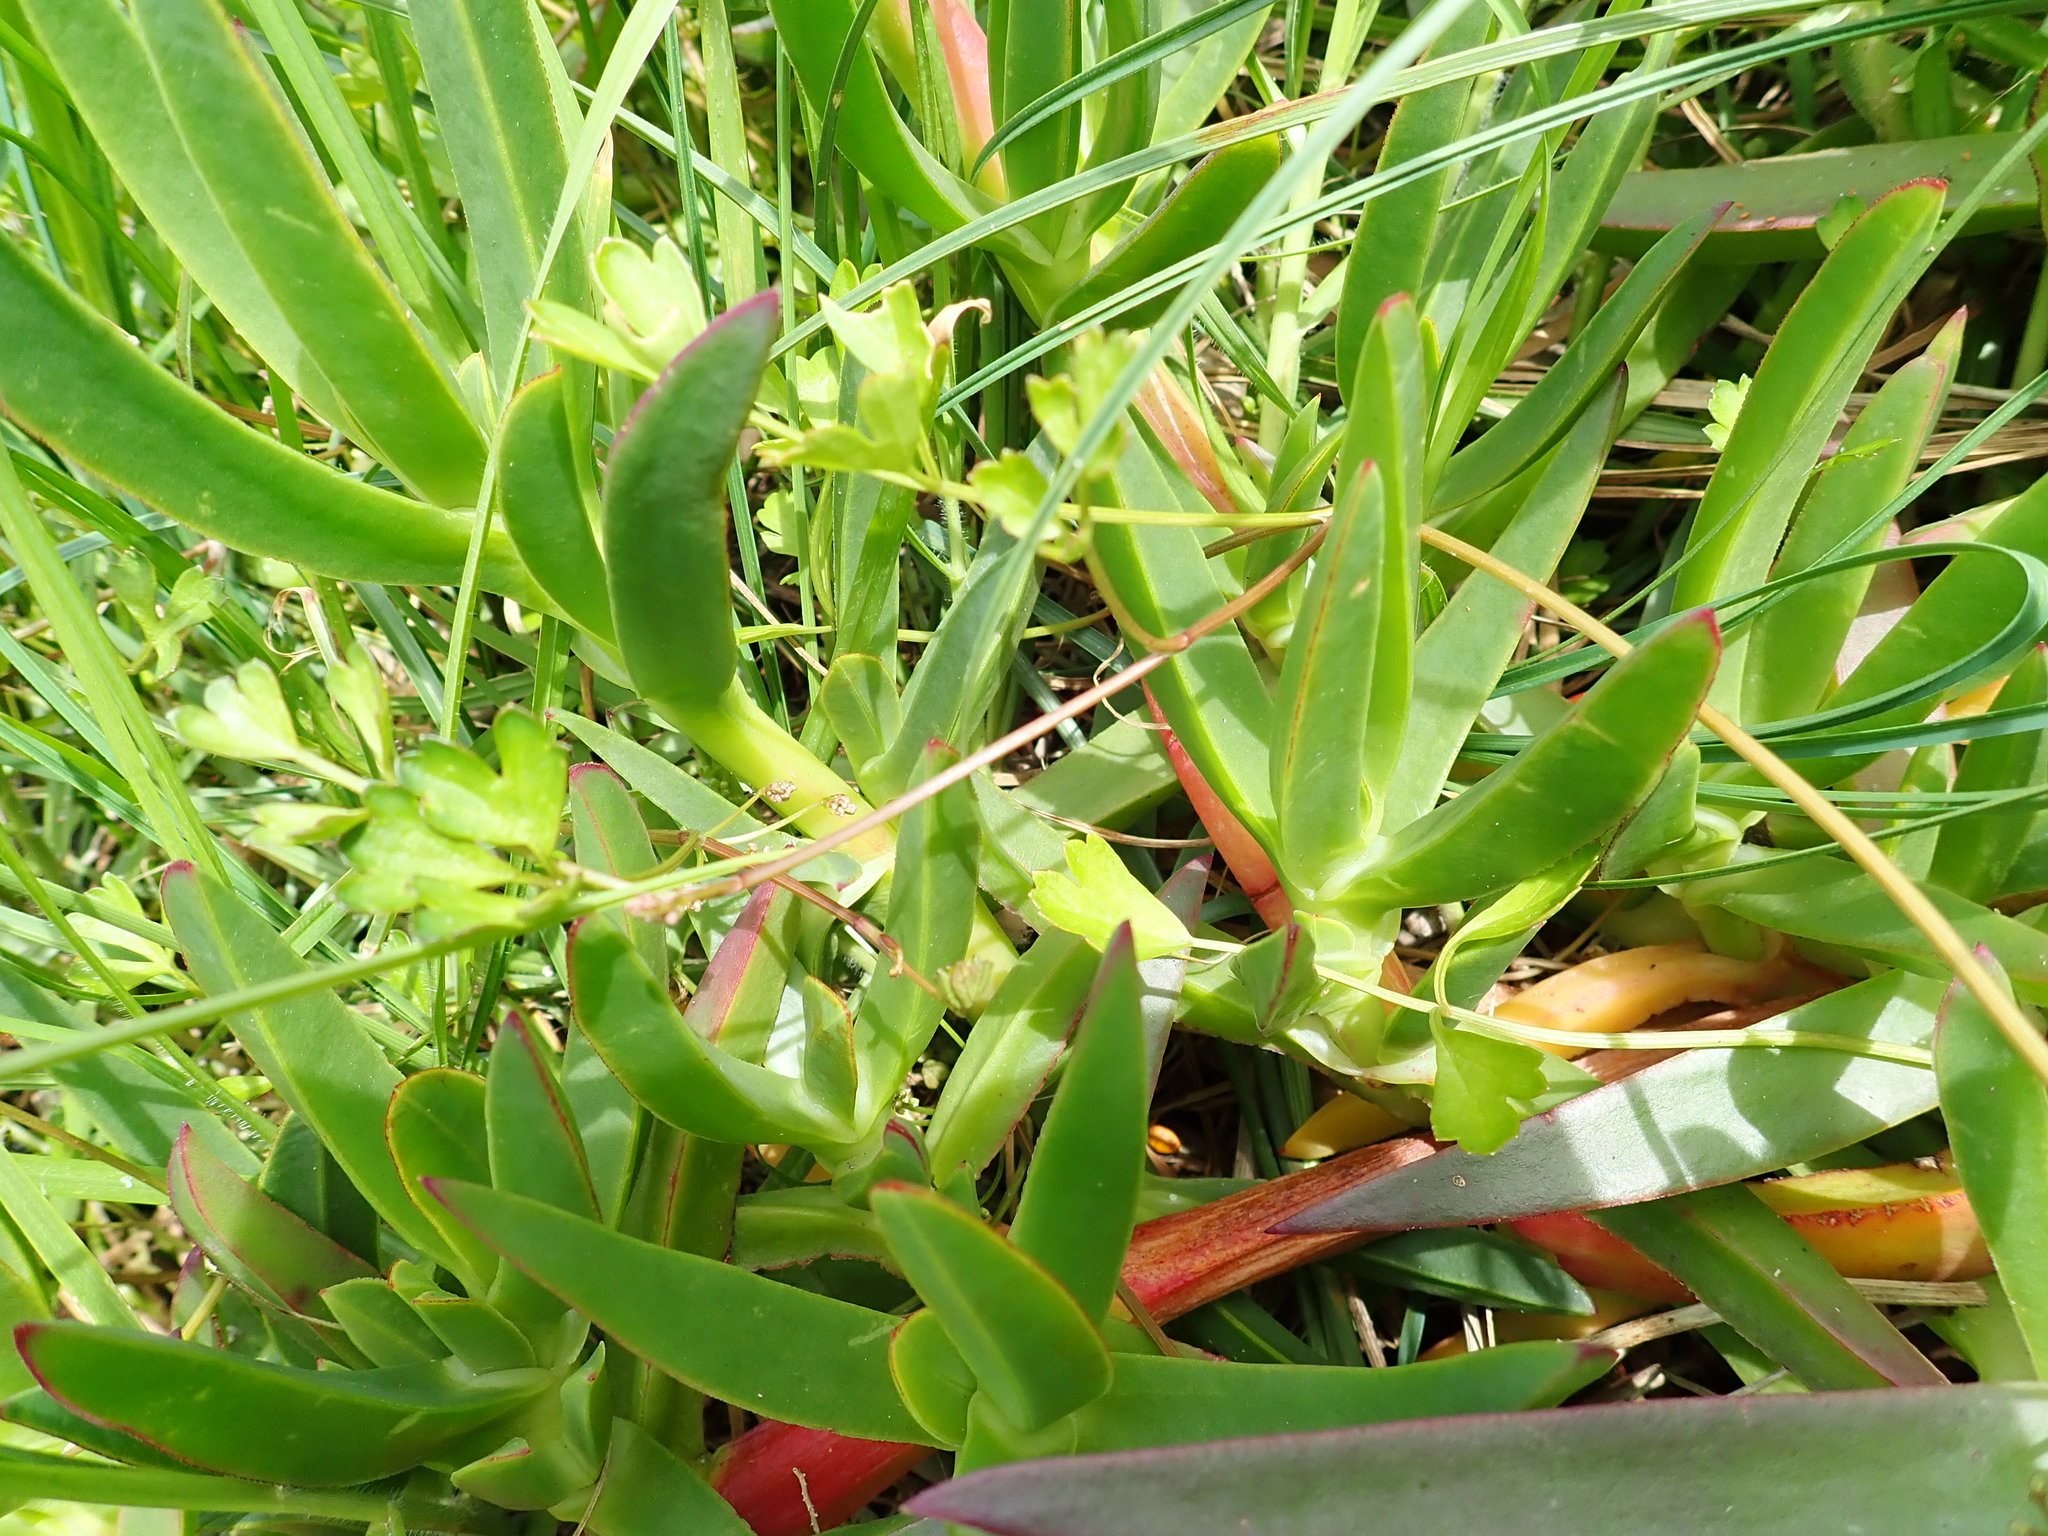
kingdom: Plantae
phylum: Tracheophyta
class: Magnoliopsida
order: Apiales
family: Apiaceae
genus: Apium
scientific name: Apium prostratum
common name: Prostrate marshwort
